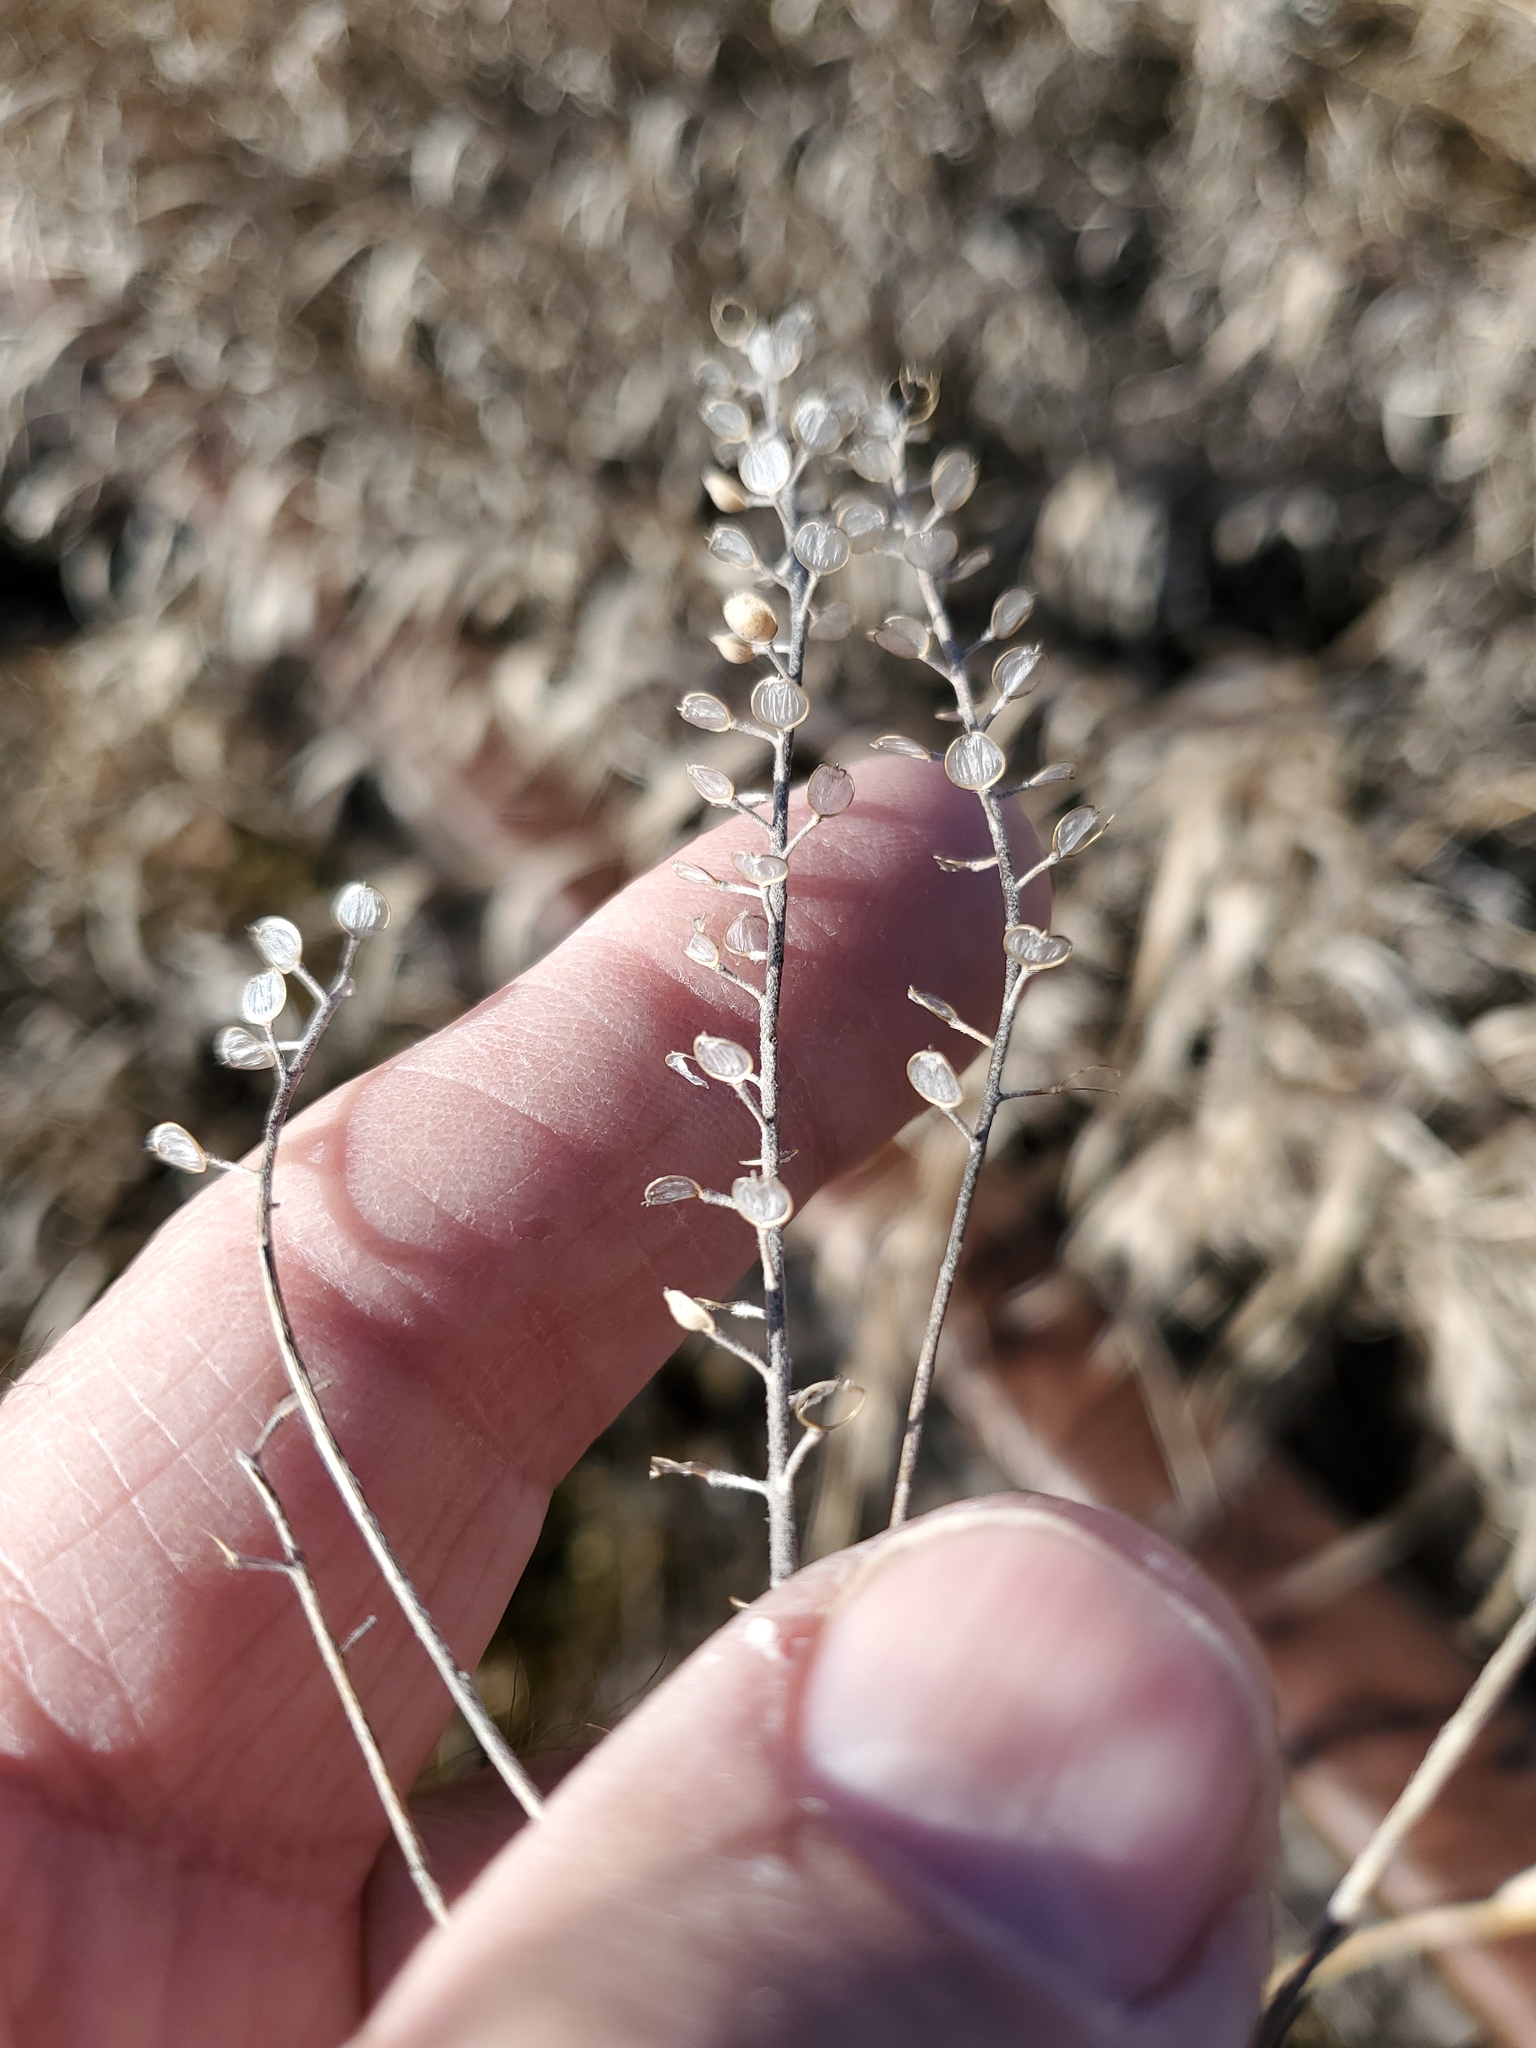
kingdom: Plantae
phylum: Tracheophyta
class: Magnoliopsida
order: Brassicales
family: Brassicaceae
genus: Alyssum
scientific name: Alyssum turkestanicum
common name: Desert alyssum
